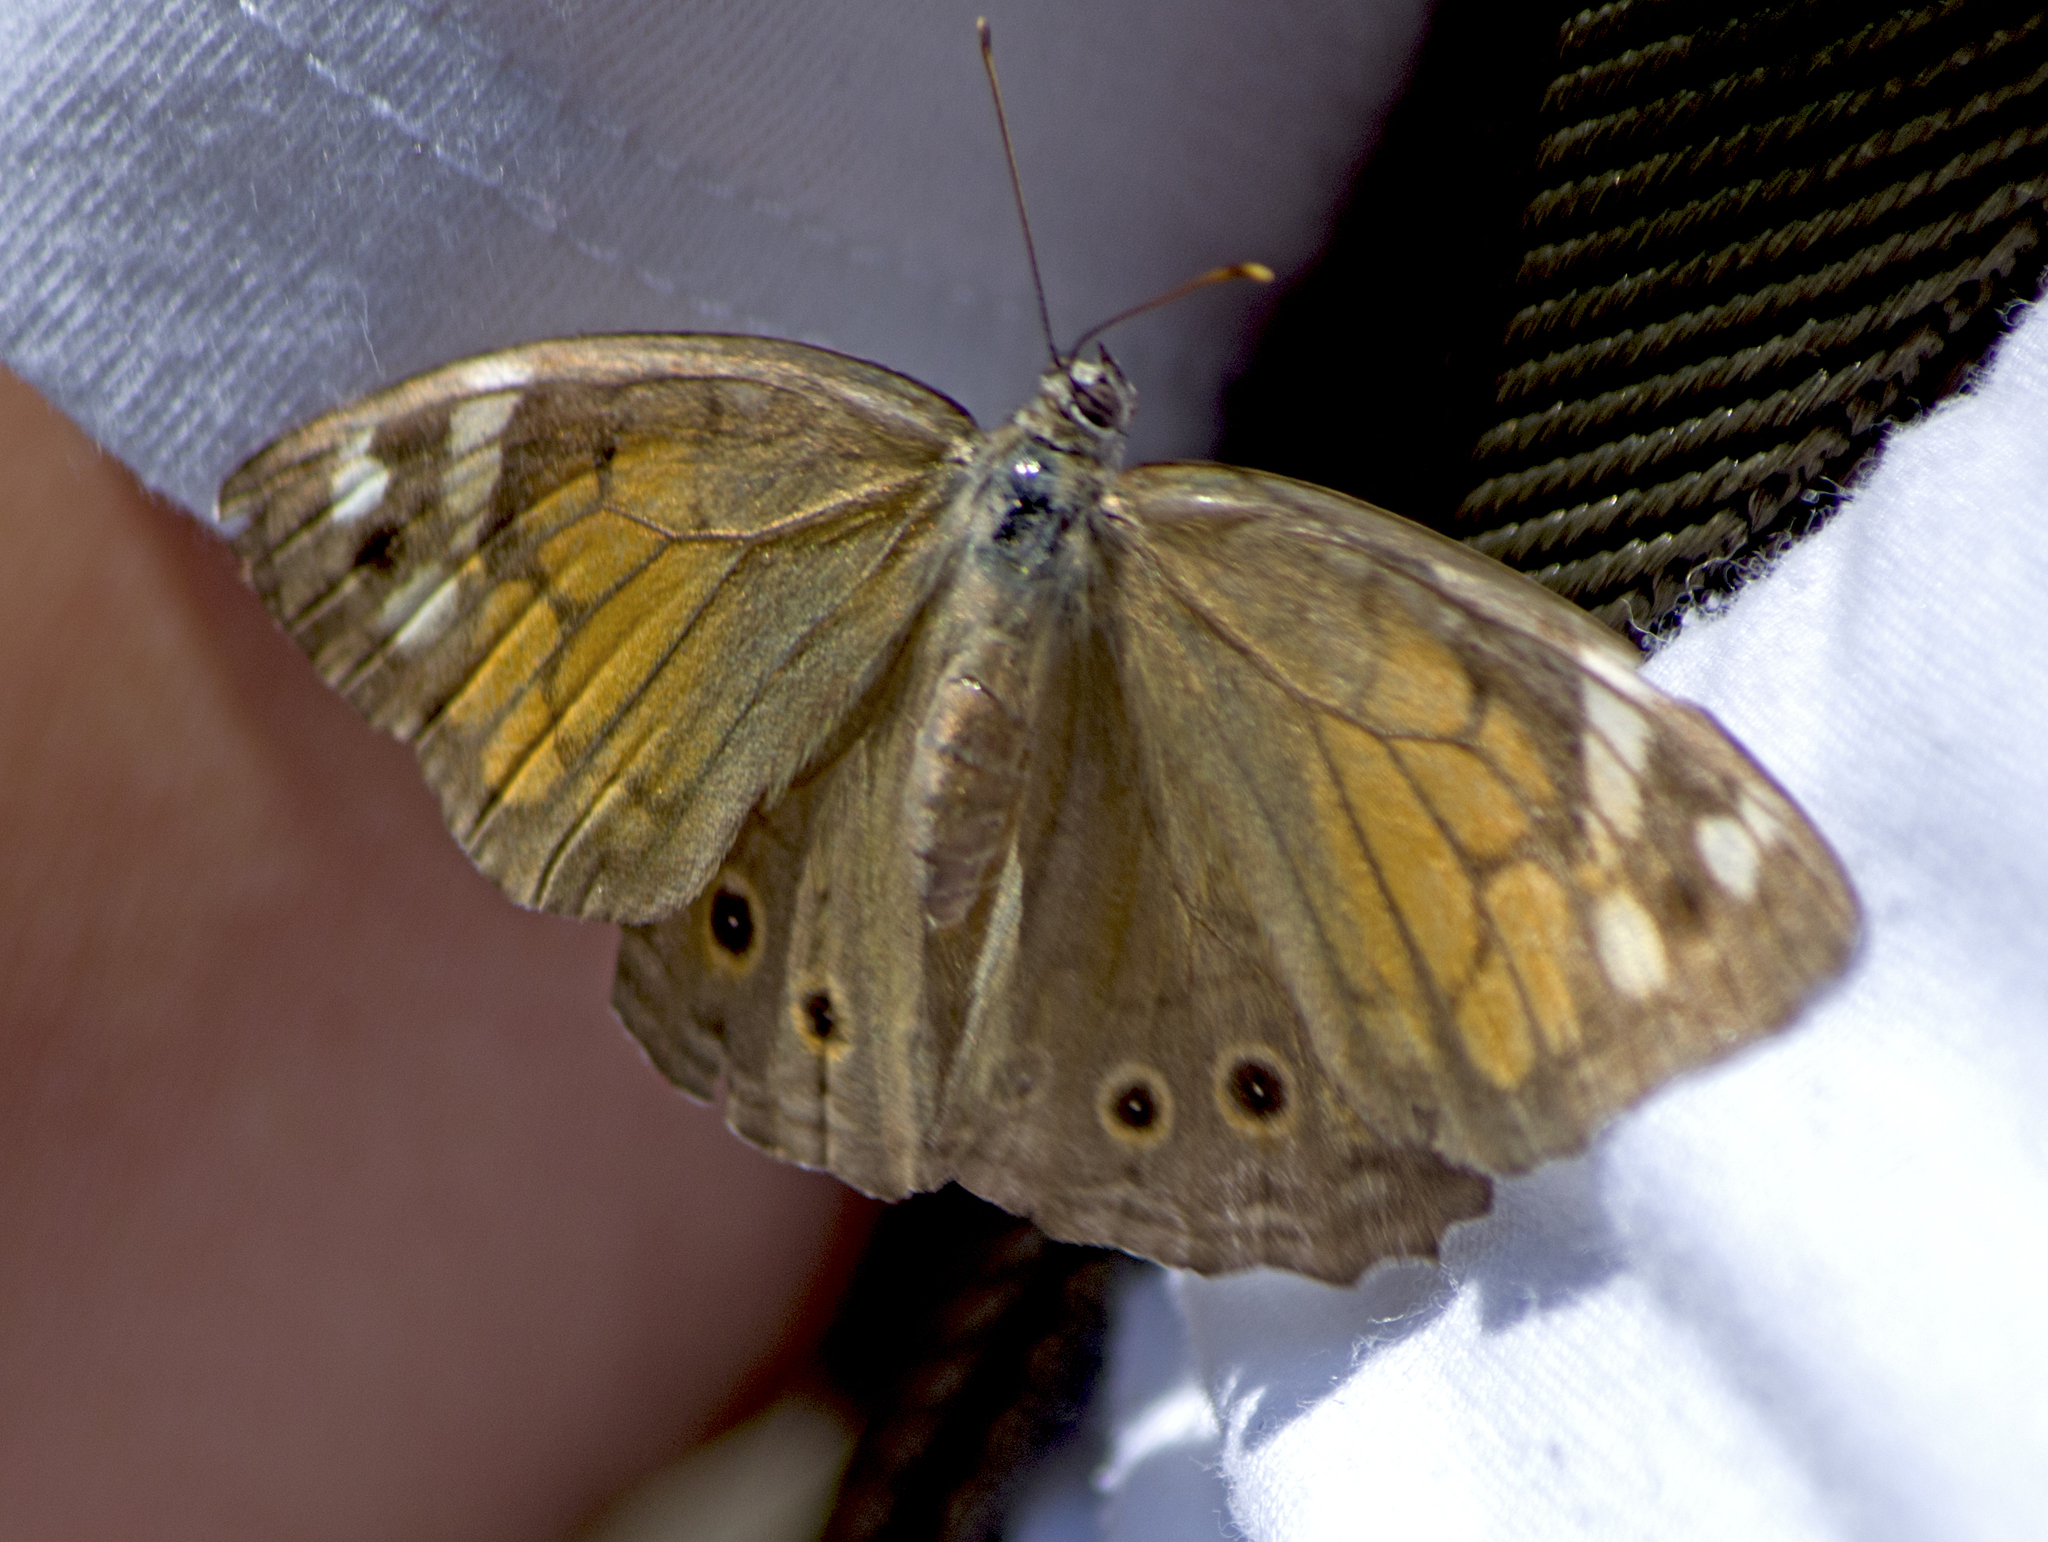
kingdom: Animalia
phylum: Arthropoda
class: Insecta
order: Lepidoptera
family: Nymphalidae
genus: Kirinia
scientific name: Kirinia roxelana
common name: Lattice brown
